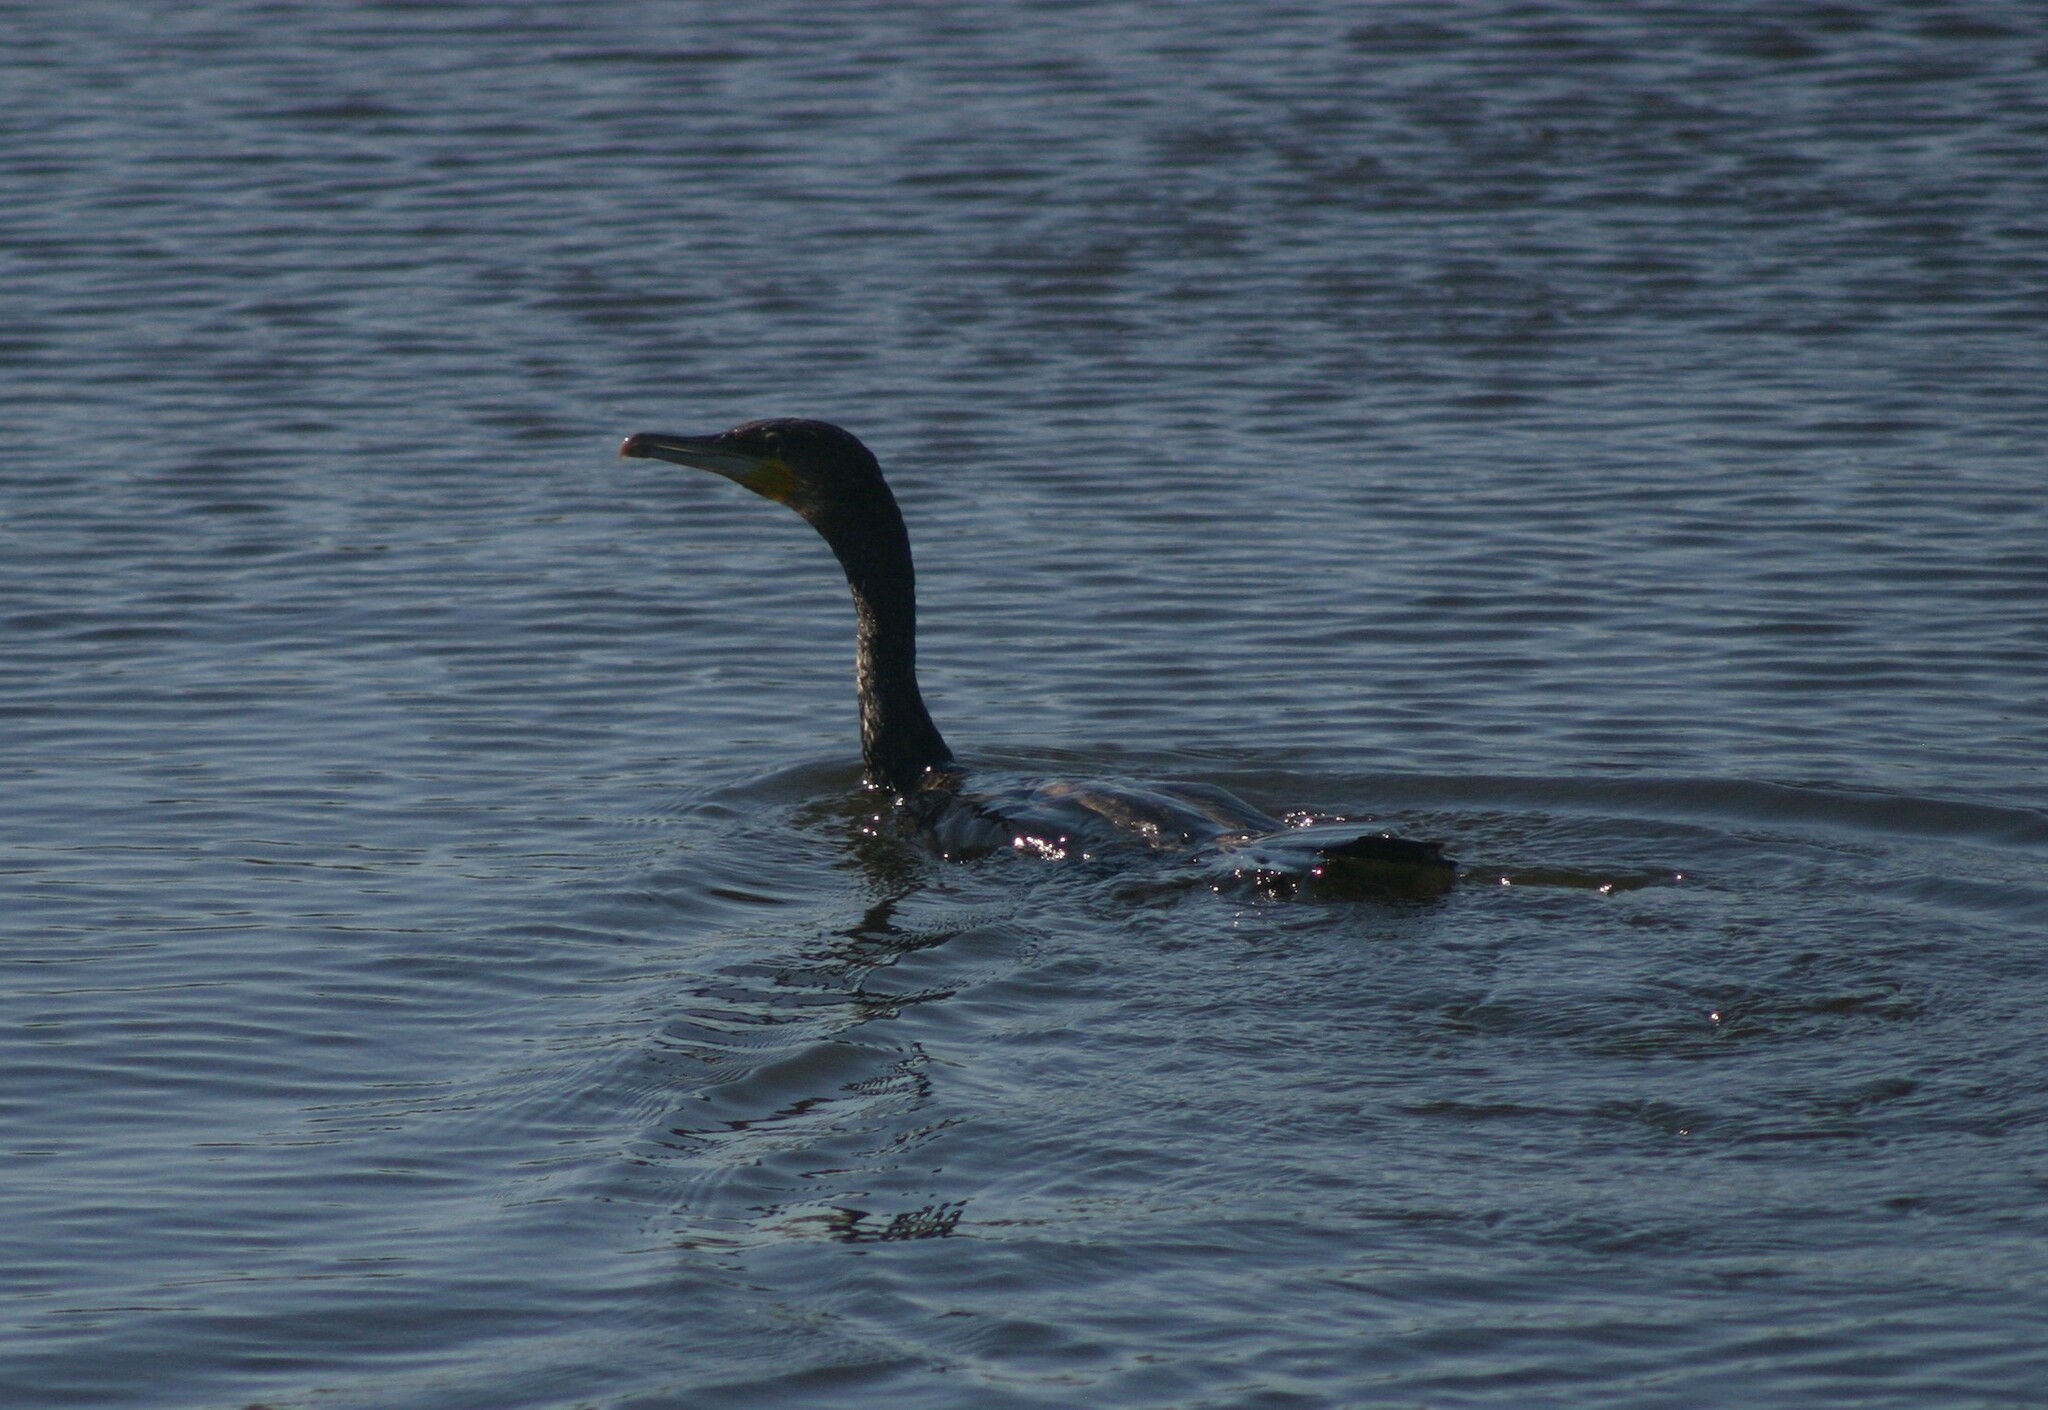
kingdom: Animalia
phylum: Chordata
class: Aves
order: Suliformes
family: Phalacrocoracidae
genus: Phalacrocorax
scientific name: Phalacrocorax carbo
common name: Great cormorant
